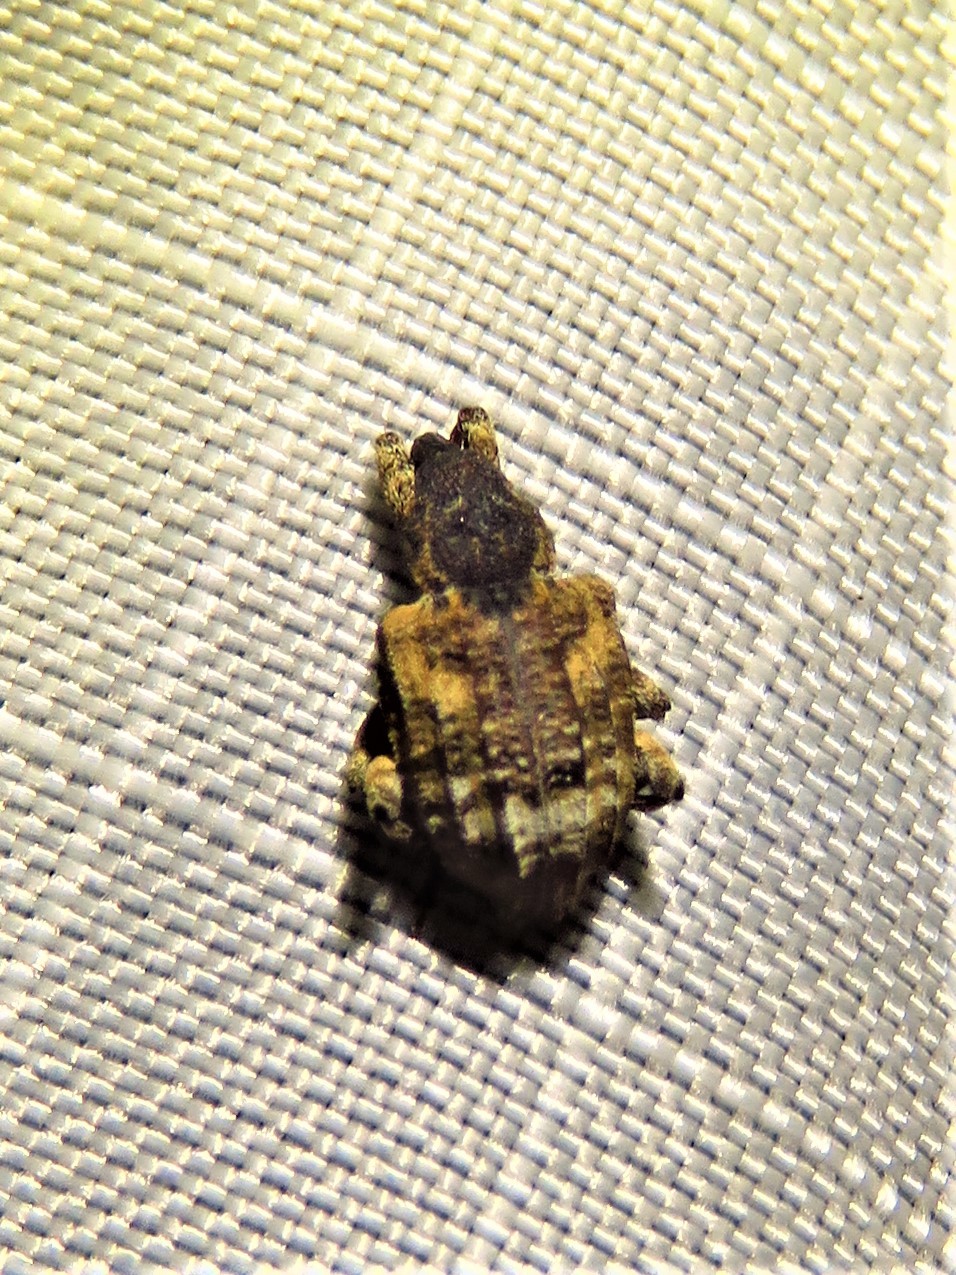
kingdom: Animalia
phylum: Arthropoda
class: Insecta
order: Coleoptera
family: Curculionidae
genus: Conotrachelus
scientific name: Conotrachelus anaglypticus
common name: Cambium curculio
